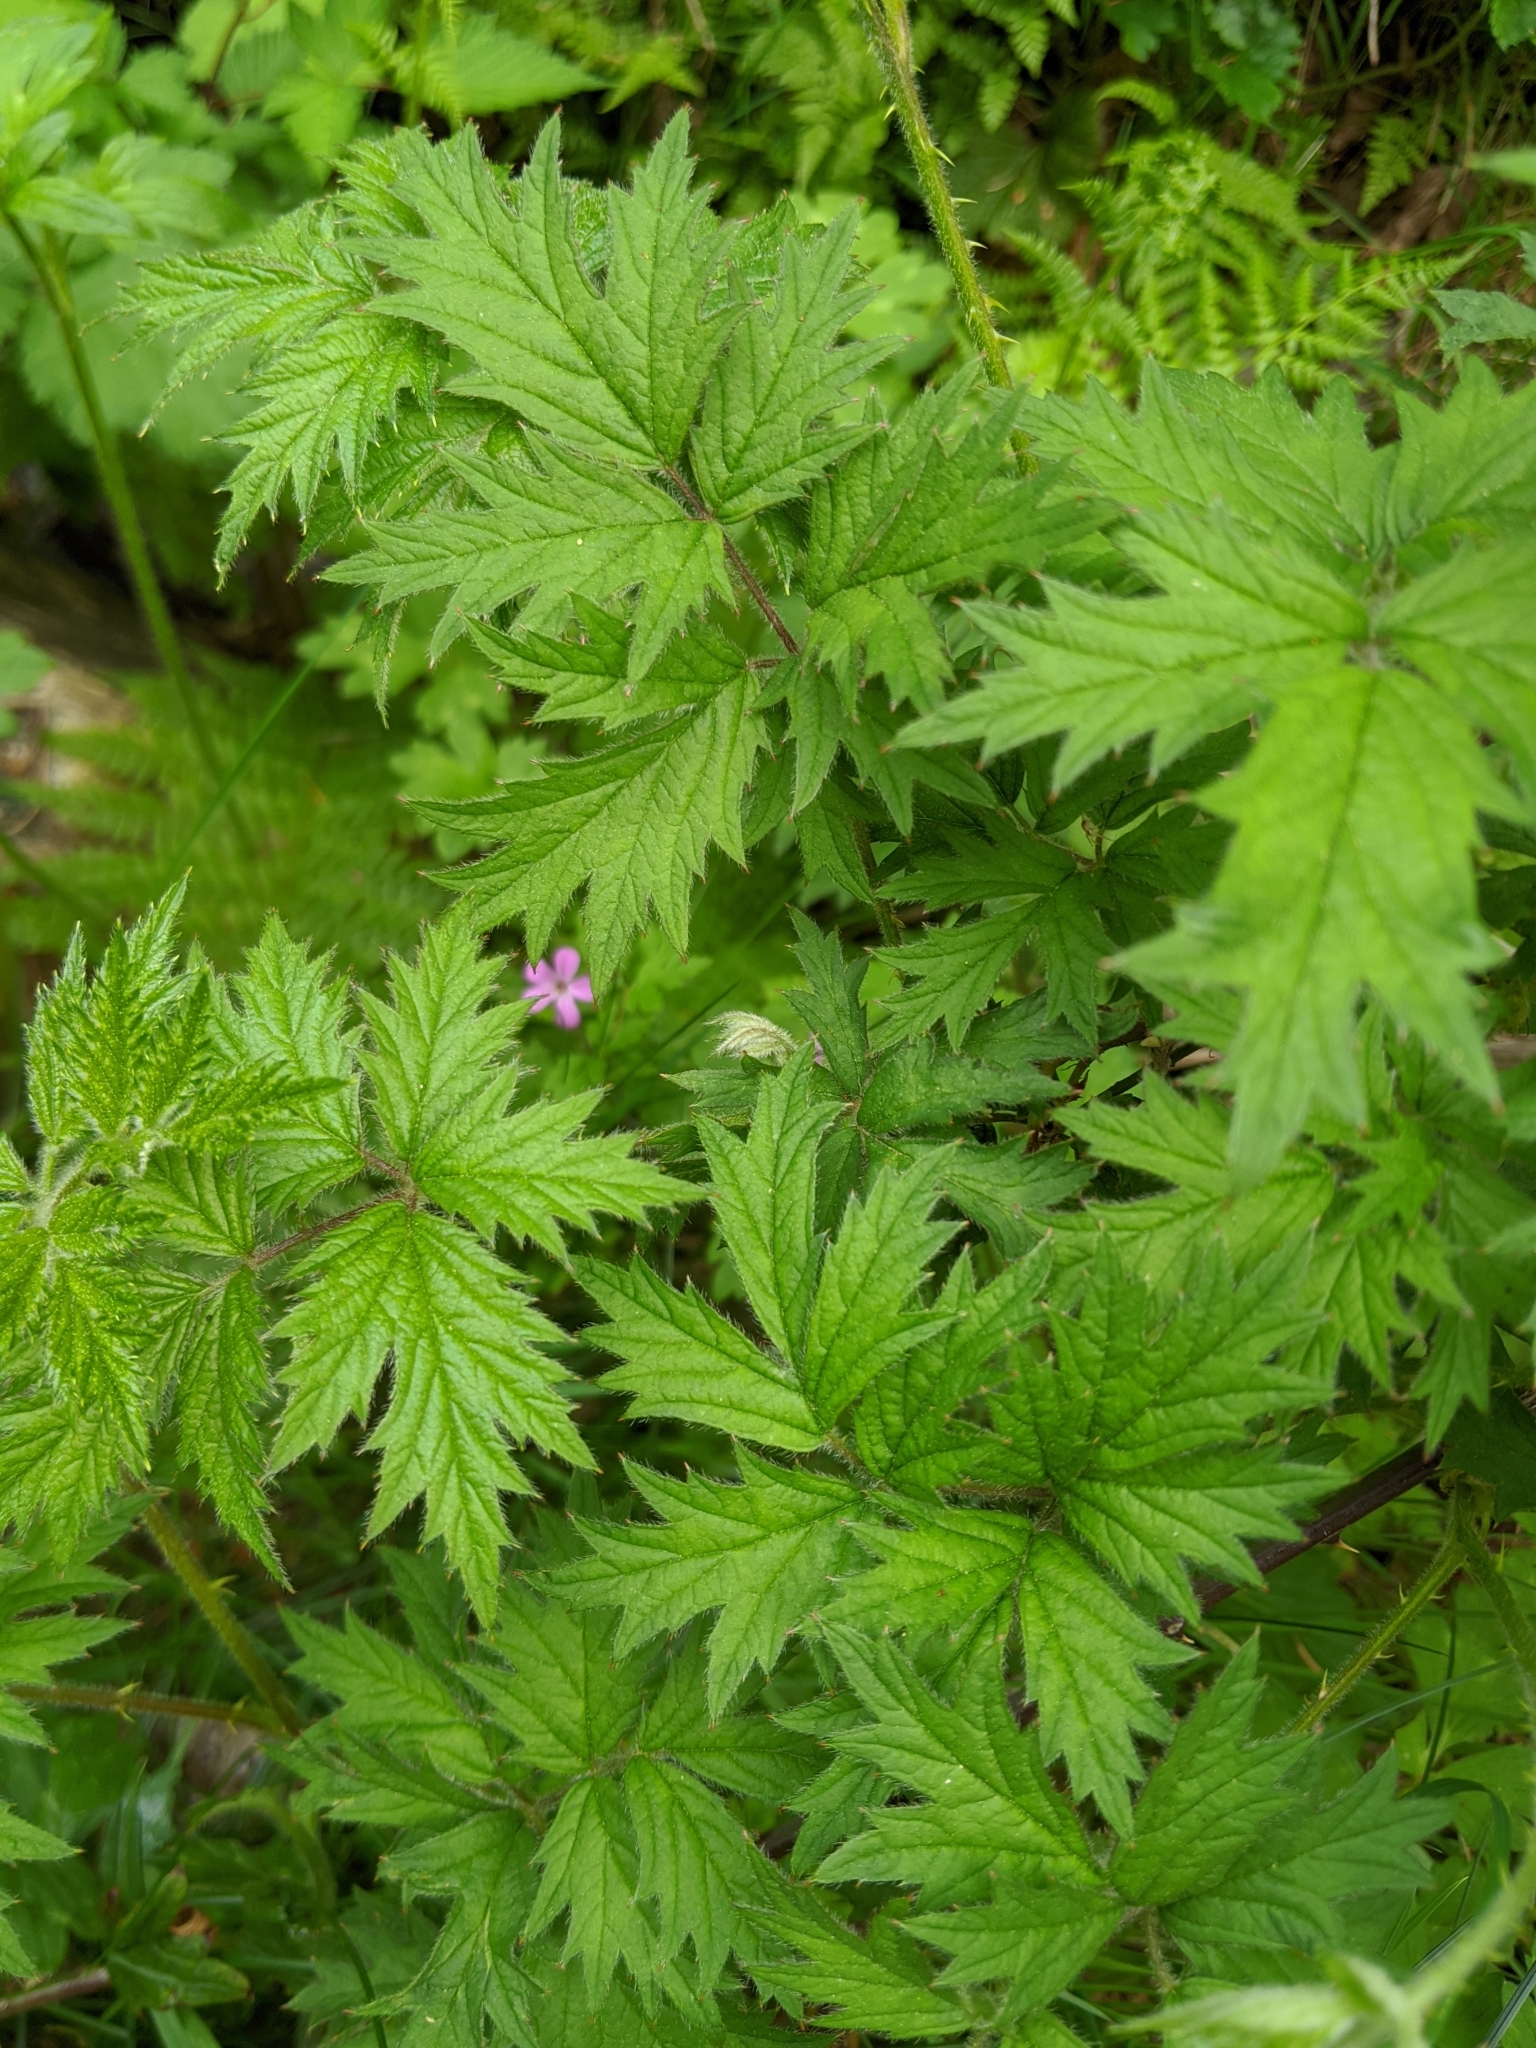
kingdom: Plantae
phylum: Tracheophyta
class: Magnoliopsida
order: Rosales
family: Rosaceae
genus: Rubus
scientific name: Rubus laciniatus
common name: Evergreen blackberry
